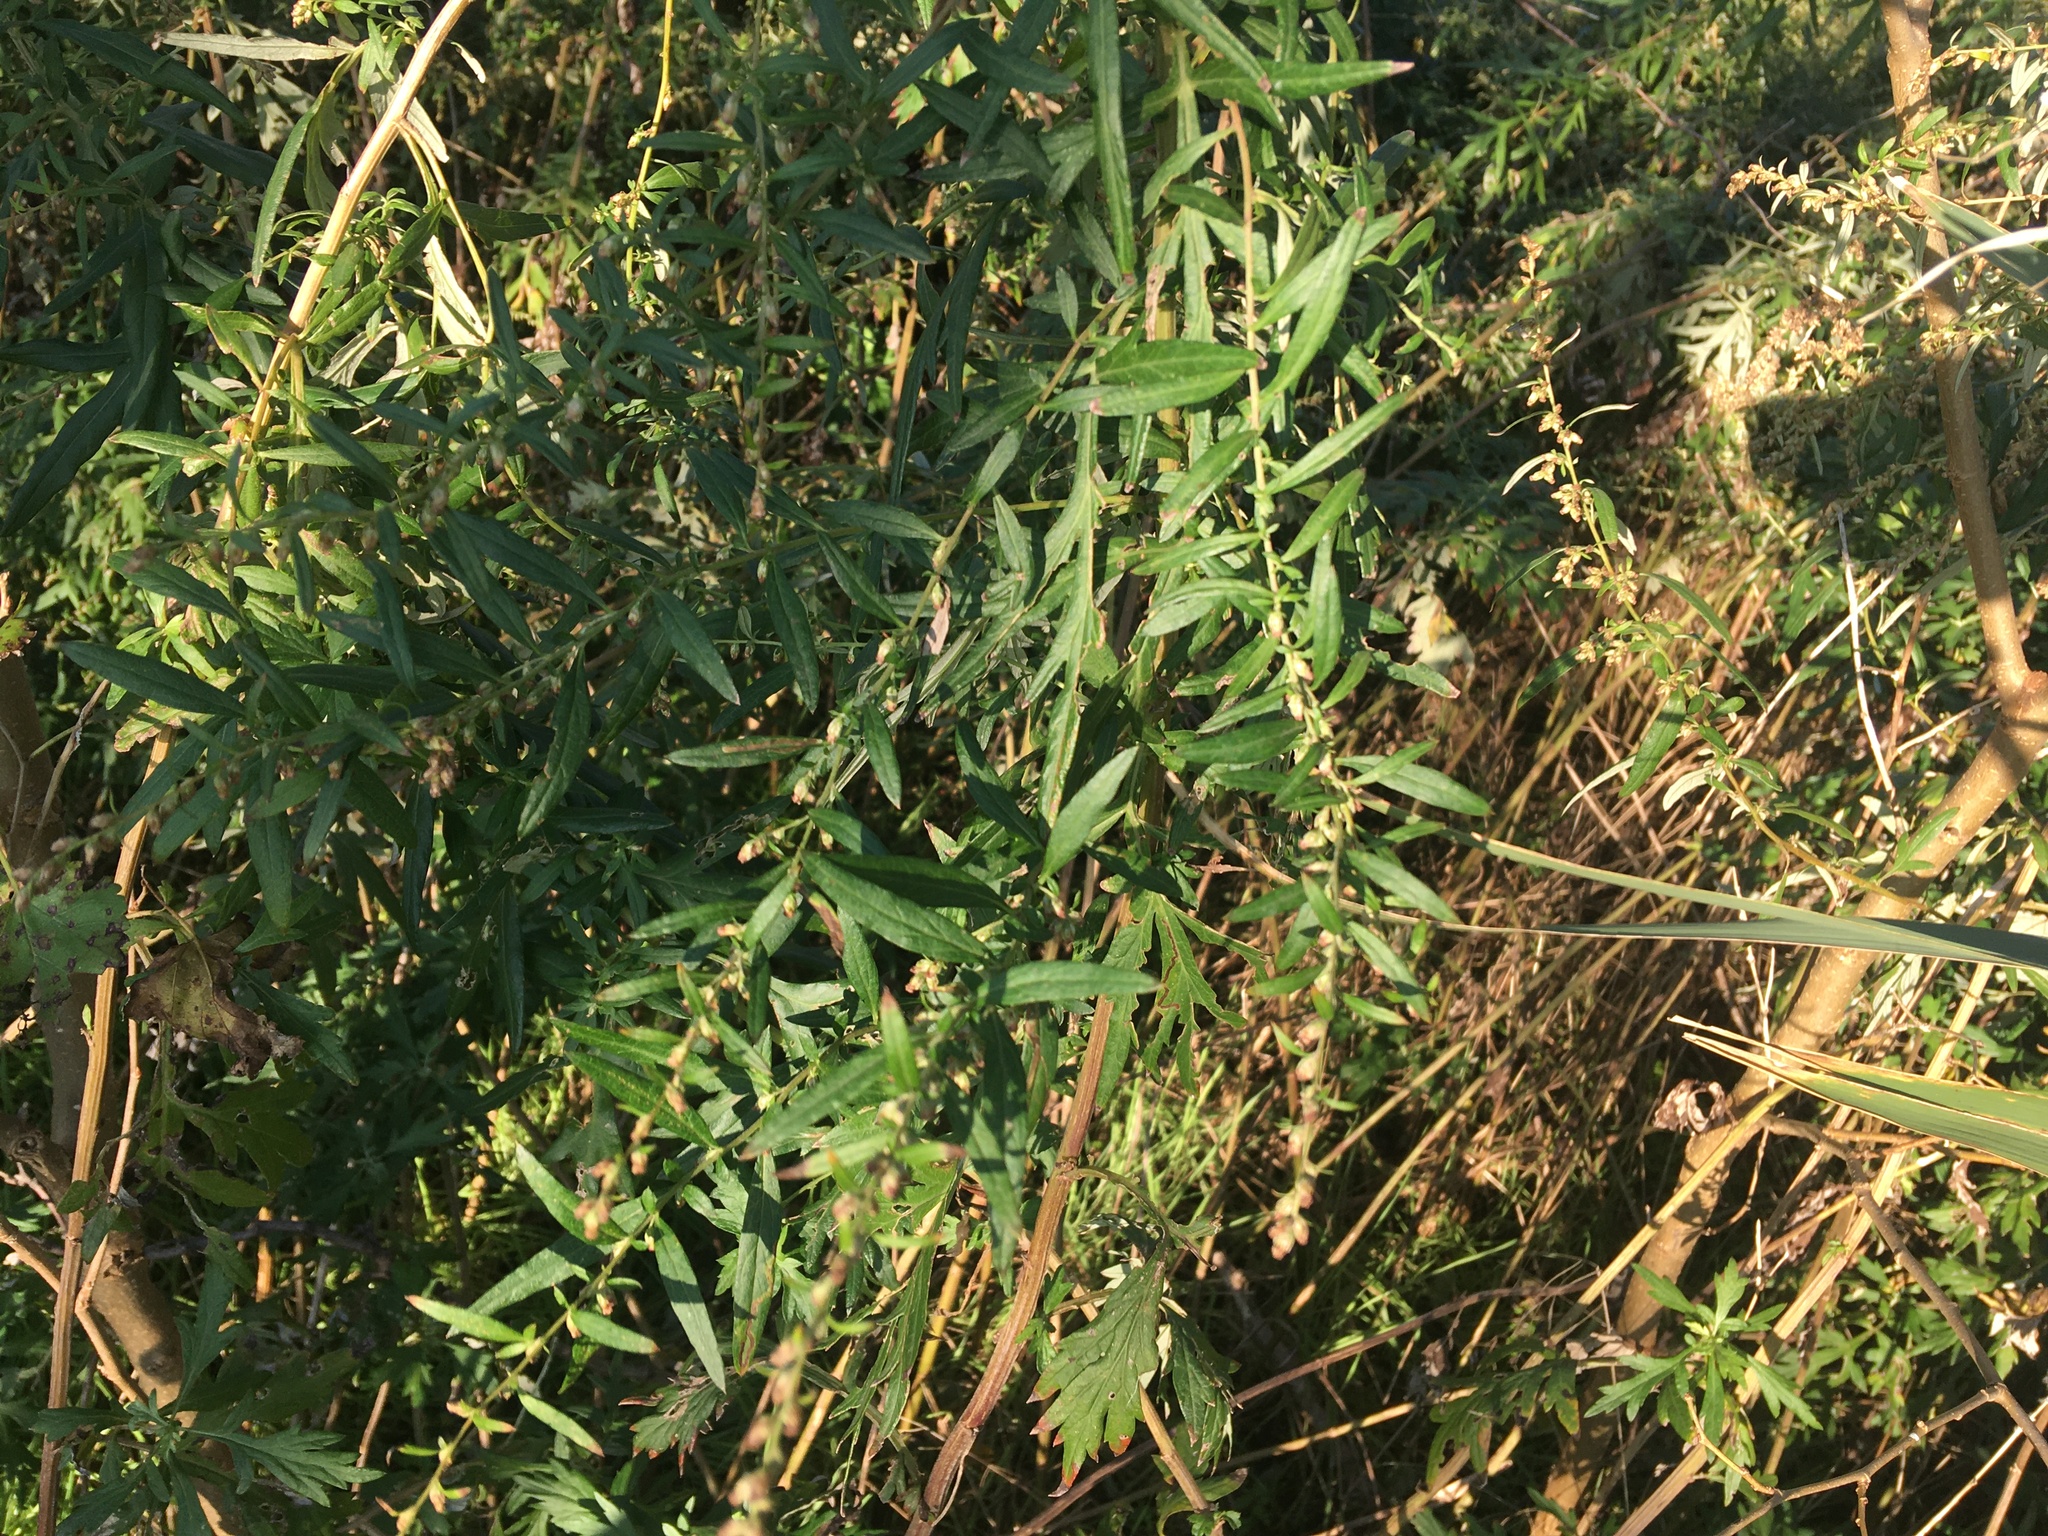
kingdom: Plantae
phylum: Tracheophyta
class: Magnoliopsida
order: Asterales
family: Asteraceae
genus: Artemisia
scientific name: Artemisia vulgaris
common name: Mugwort
